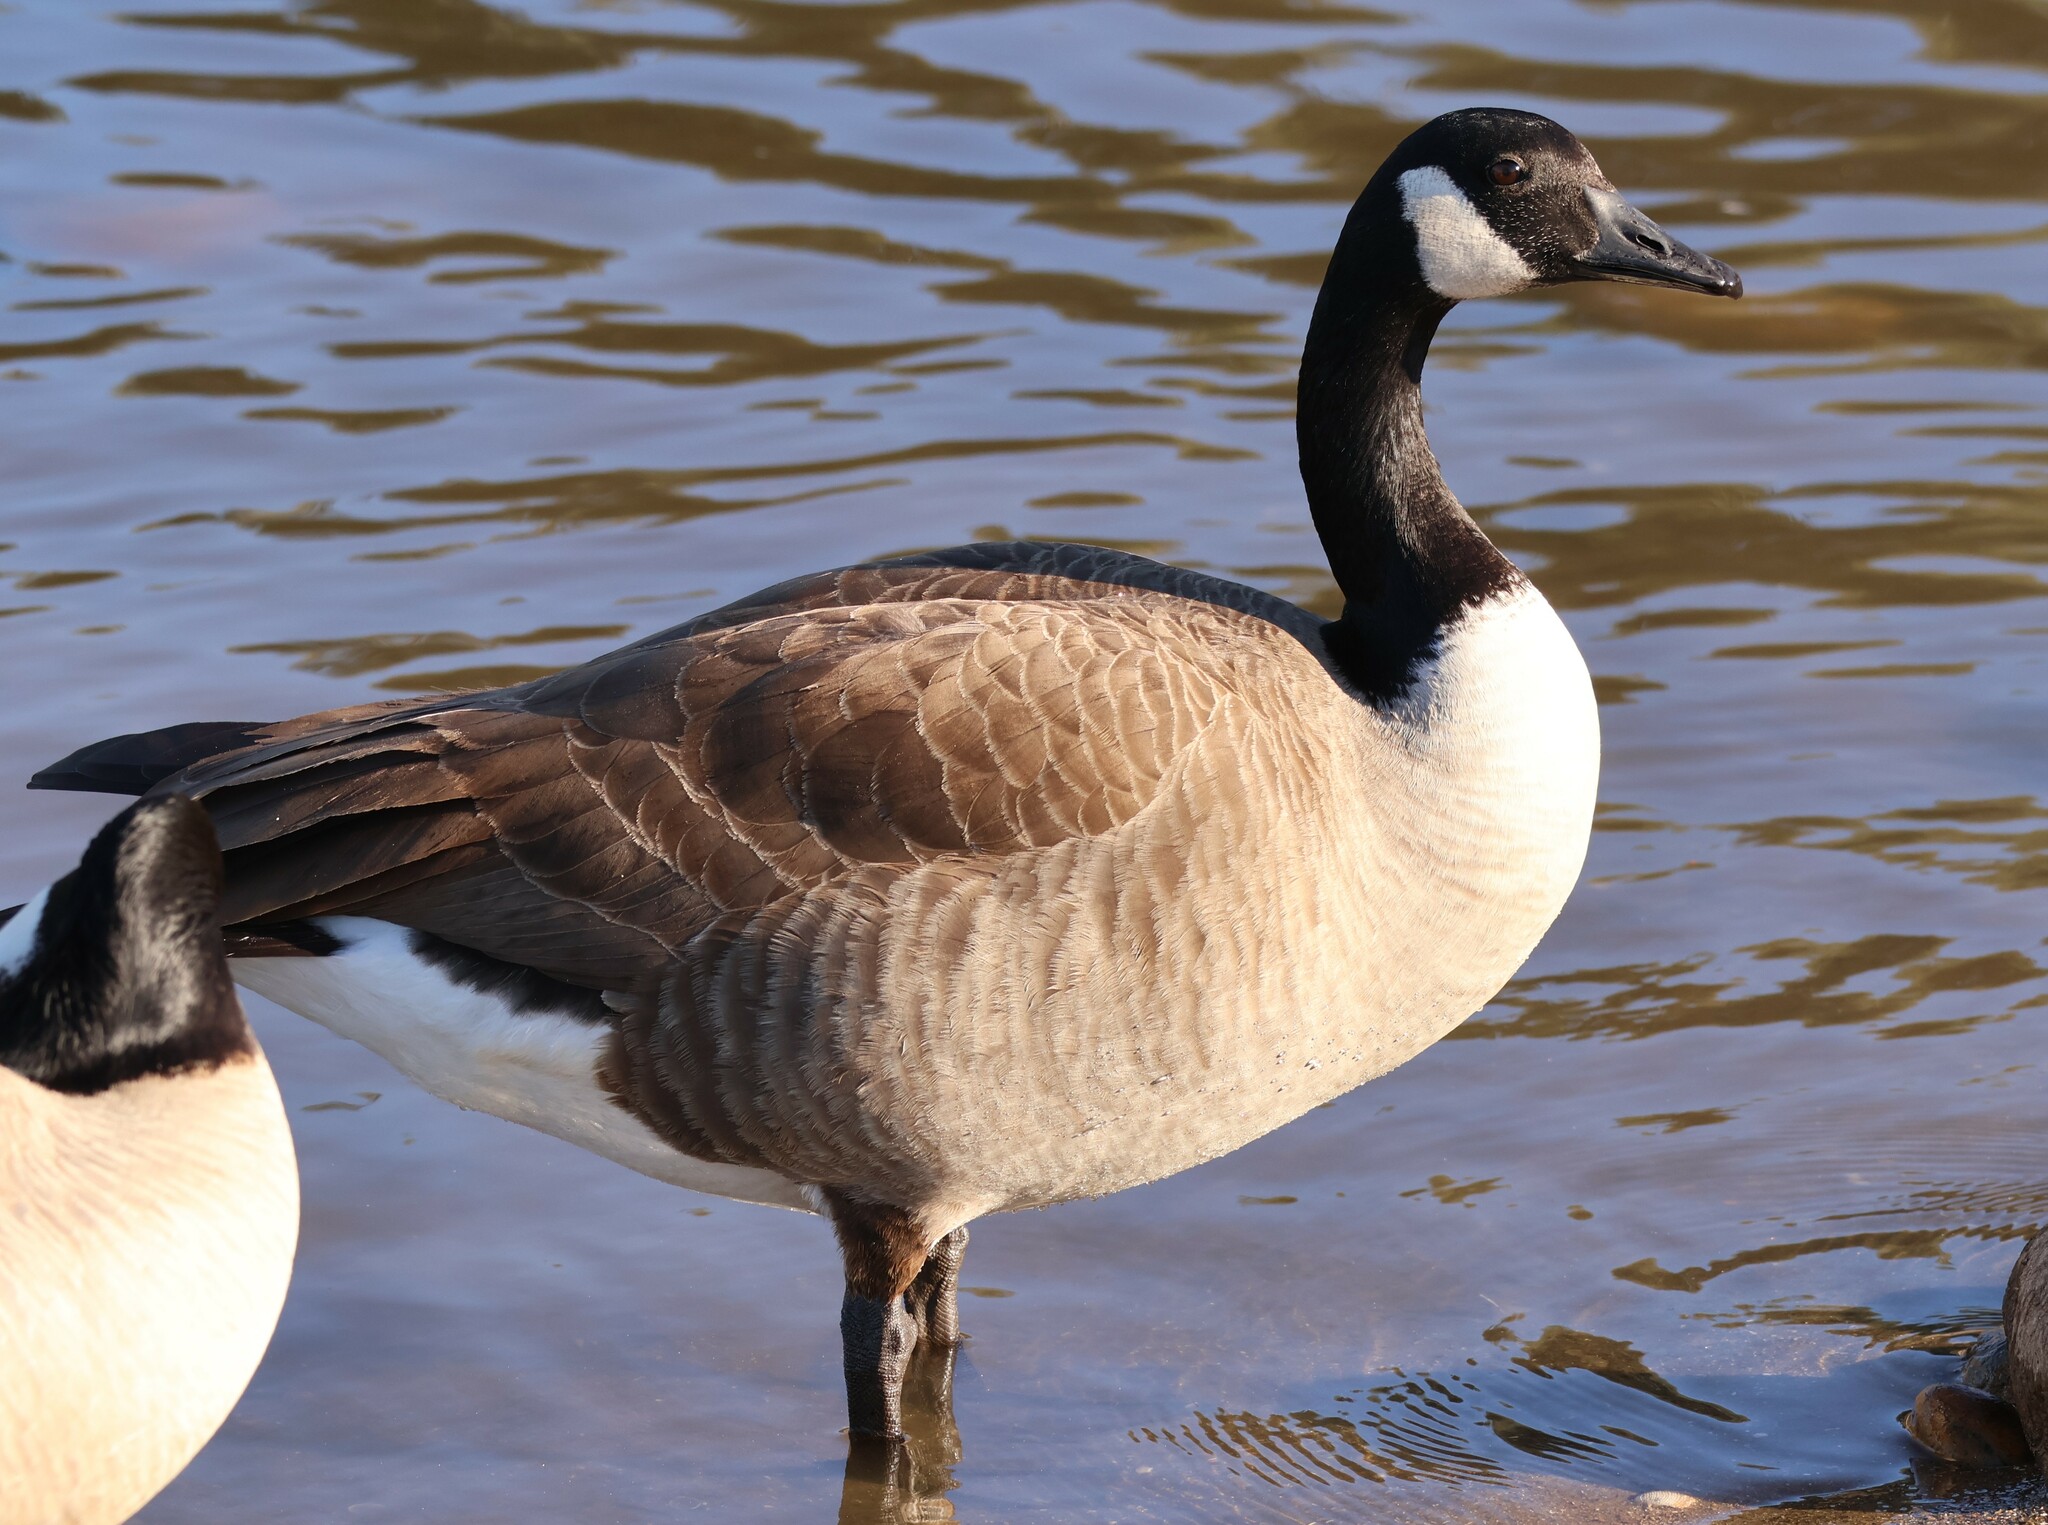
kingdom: Animalia
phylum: Chordata
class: Aves
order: Anseriformes
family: Anatidae
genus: Branta
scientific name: Branta canadensis
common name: Canada goose
